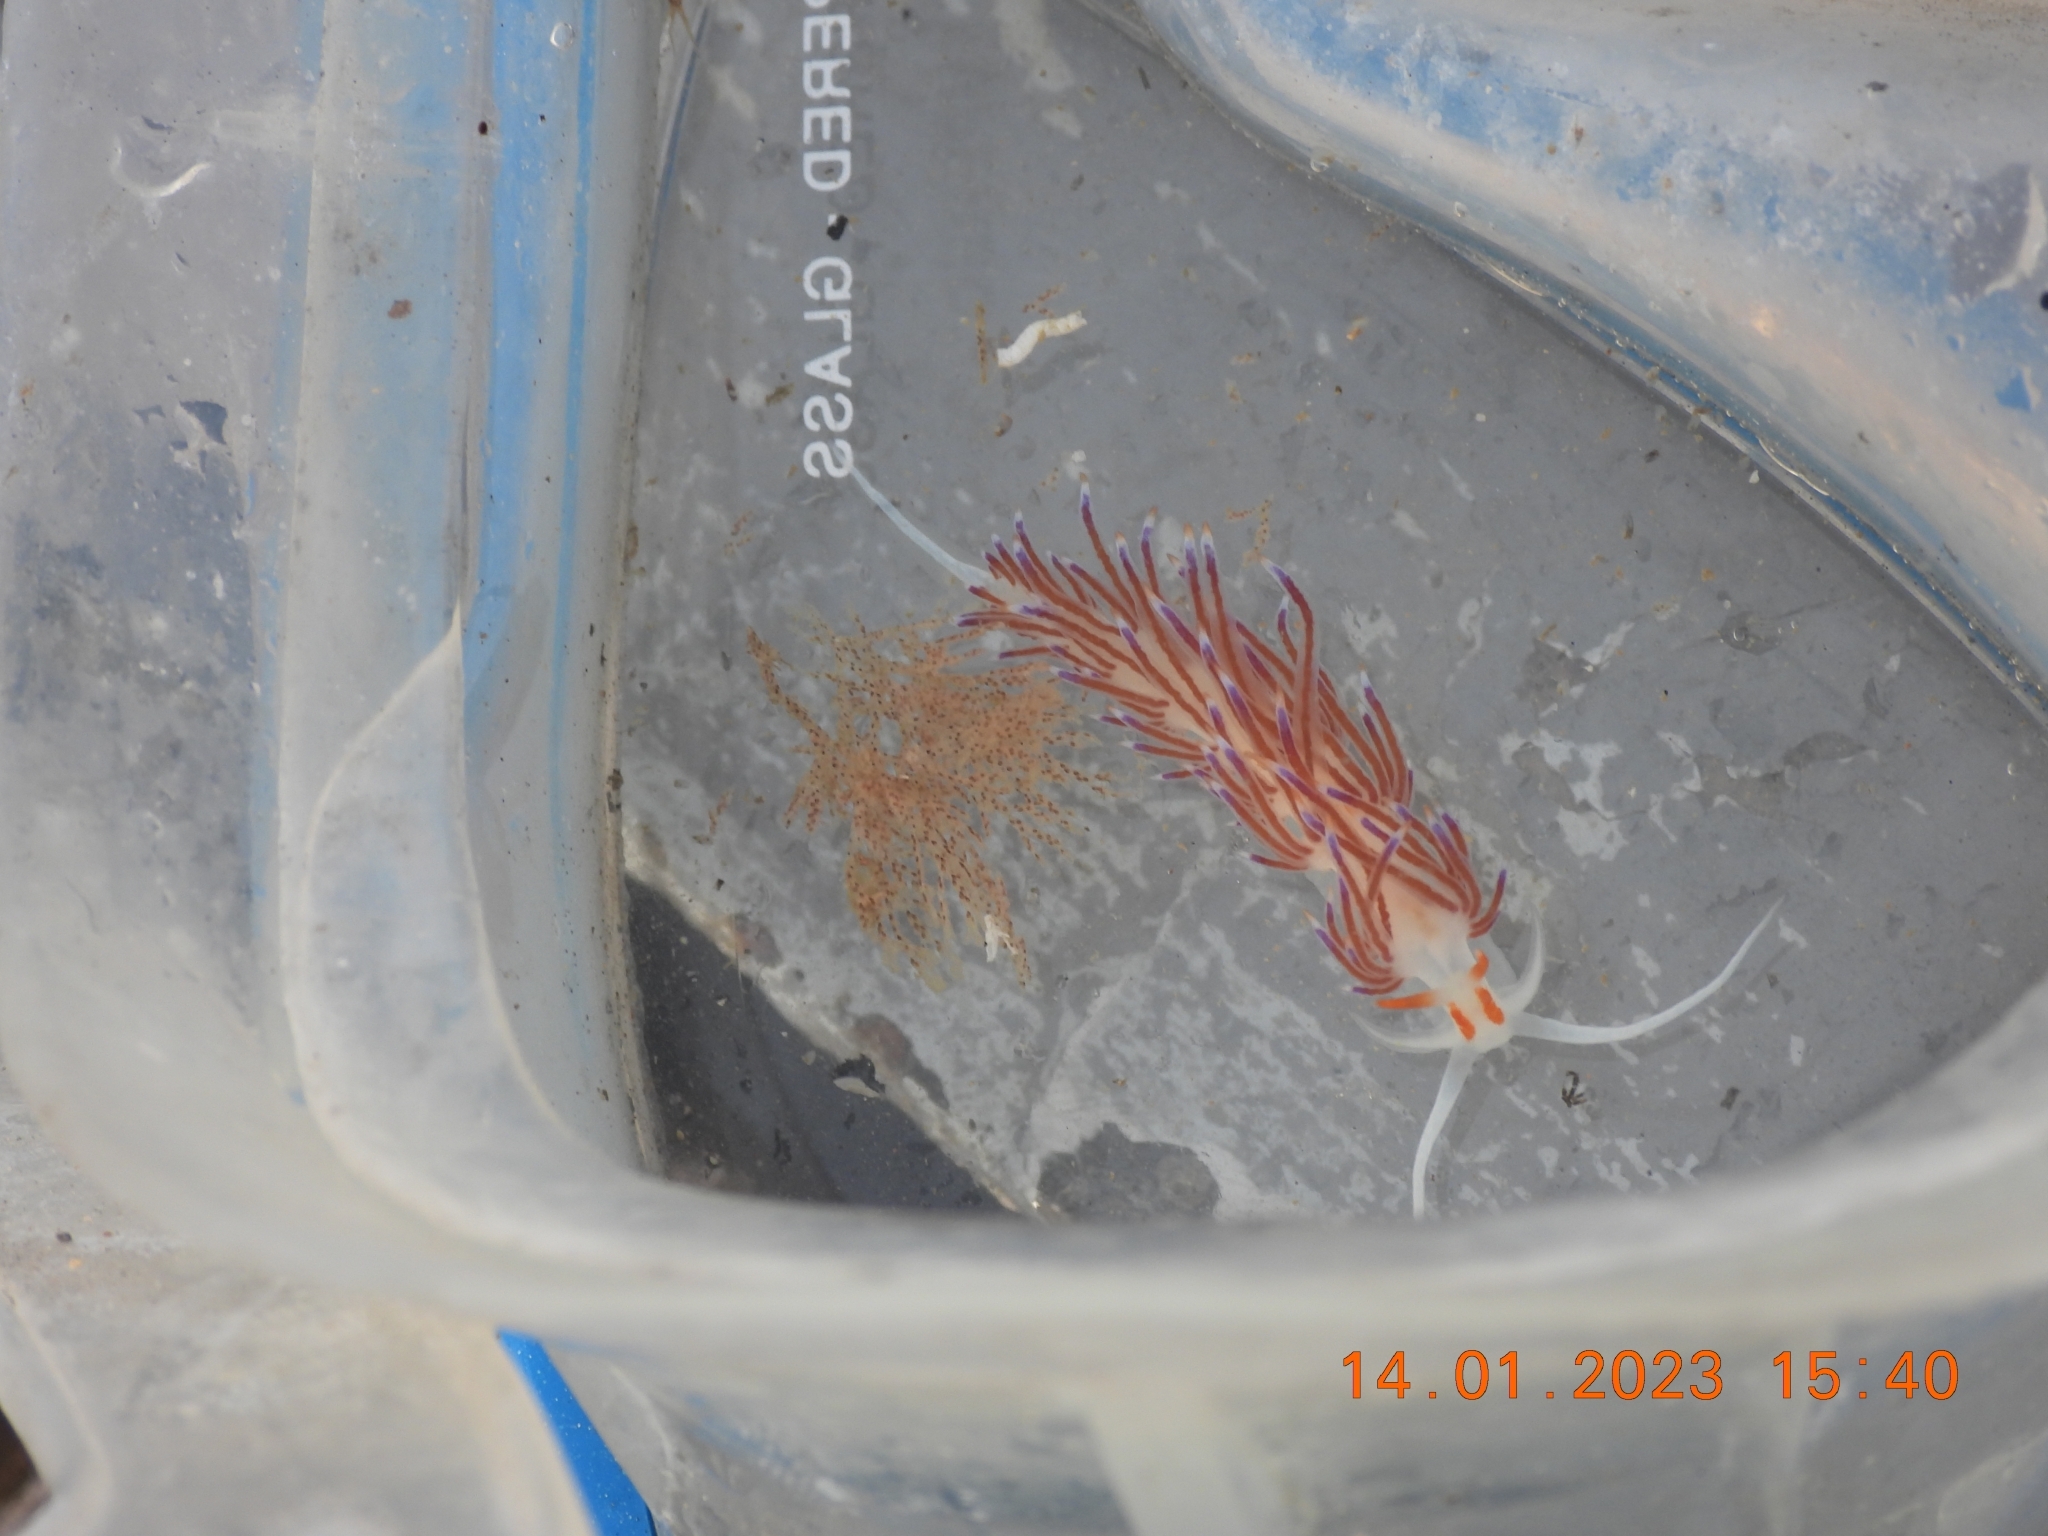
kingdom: Animalia
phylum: Mollusca
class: Gastropoda
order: Nudibranchia
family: Facelinidae
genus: Cratena
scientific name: Cratena peregrina
